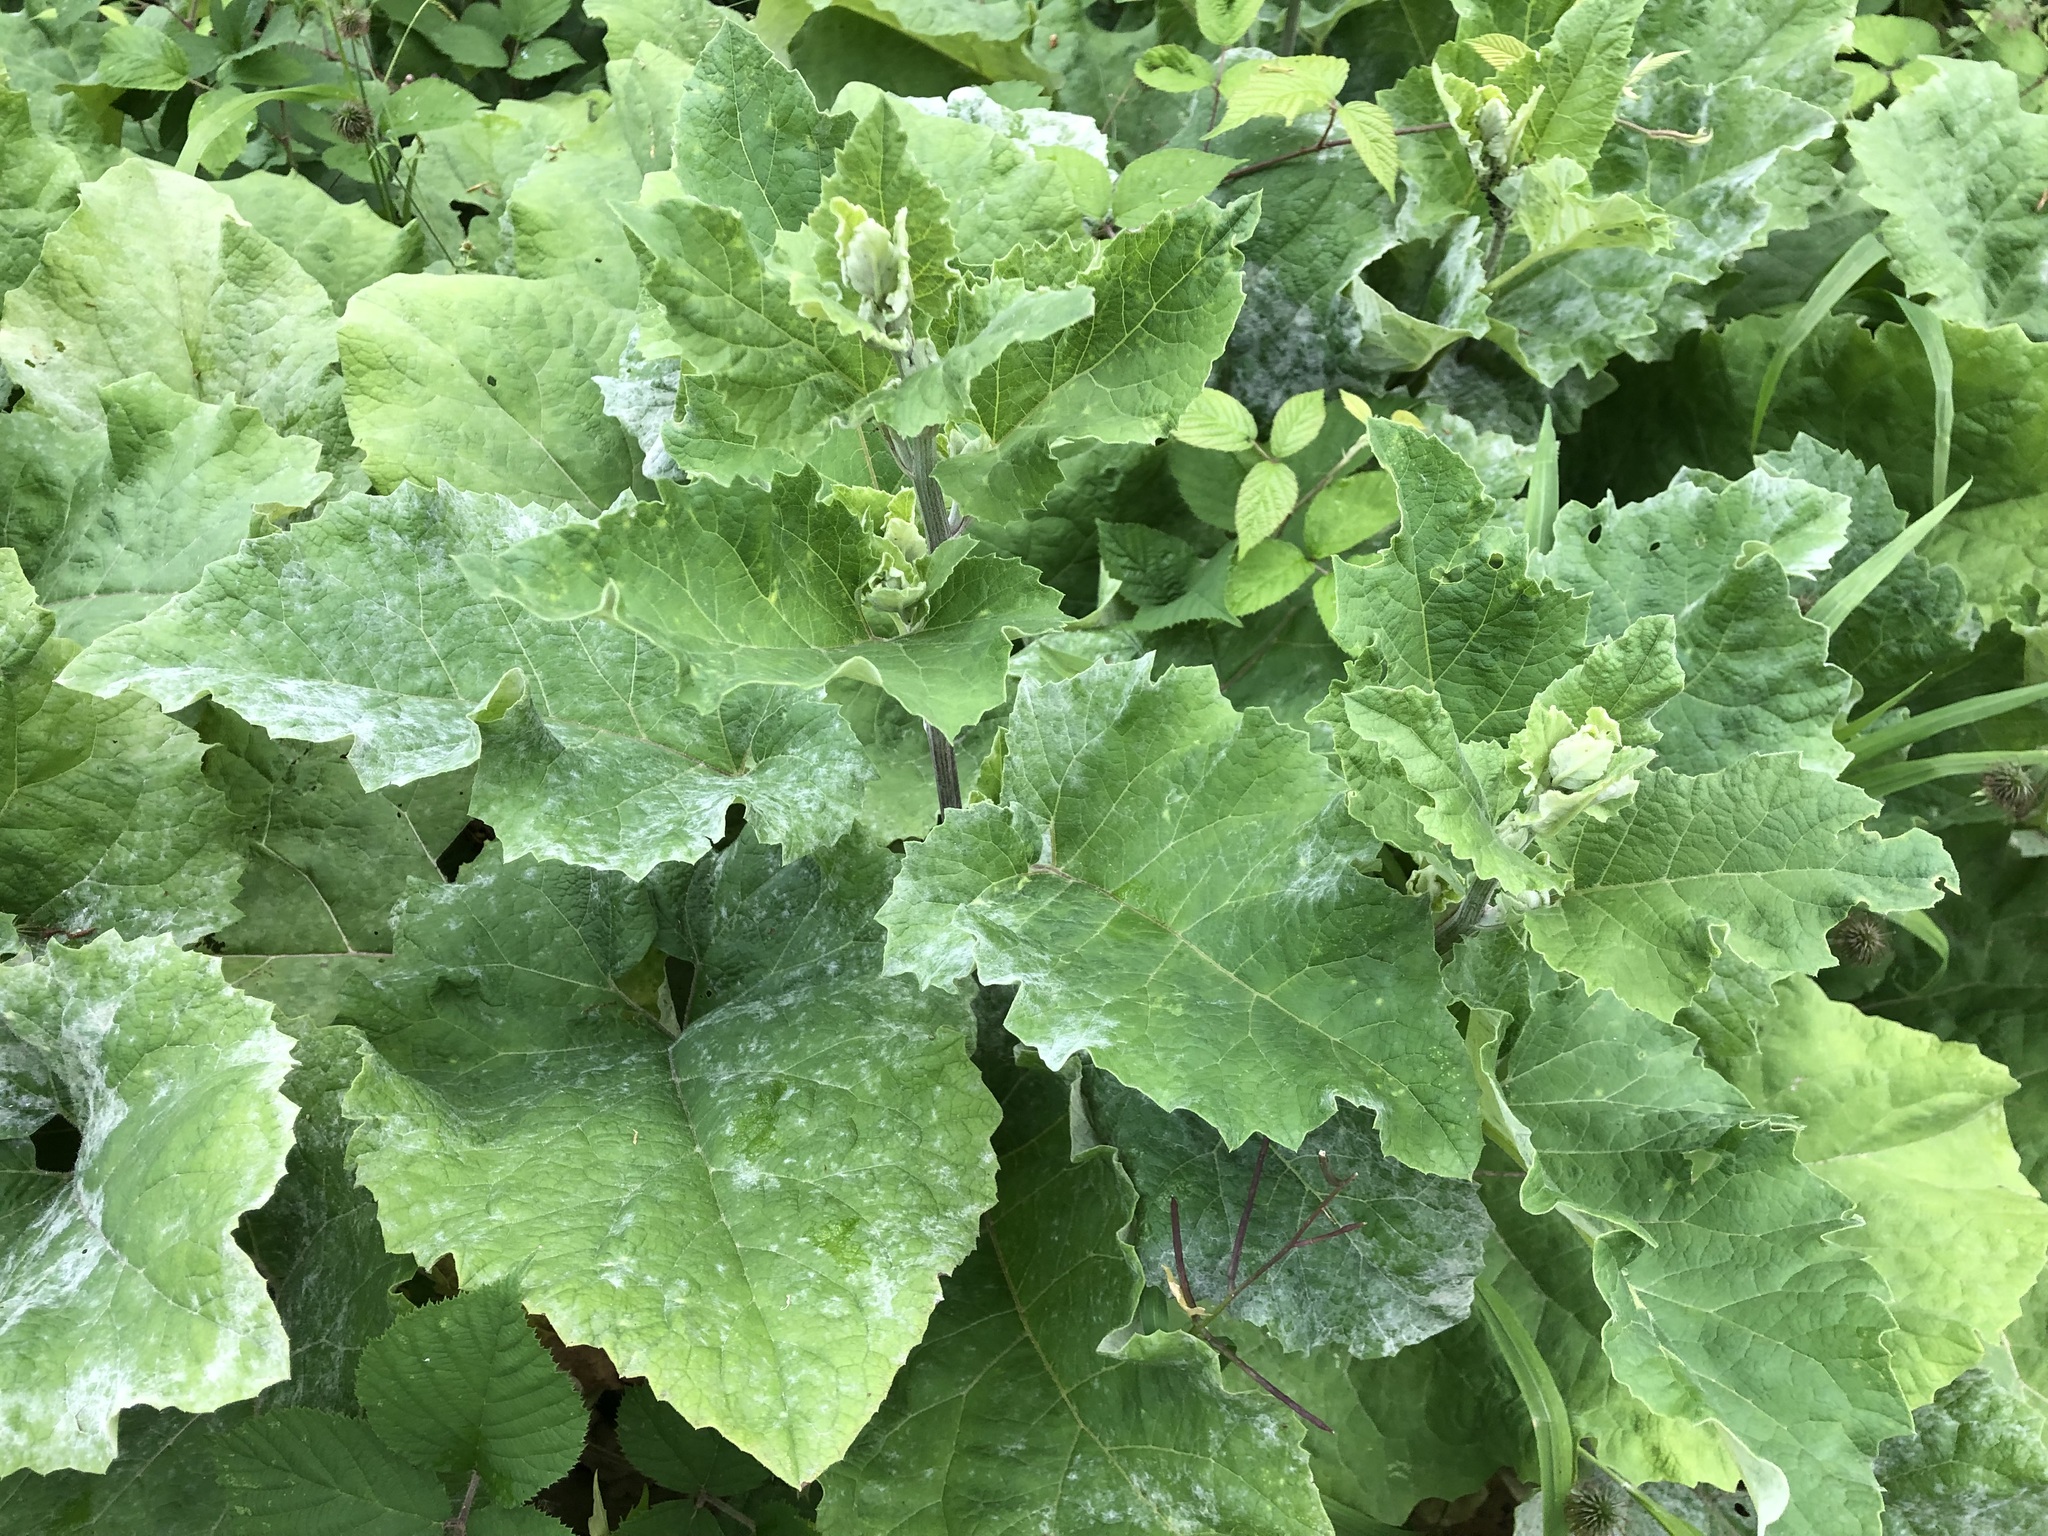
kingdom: Plantae
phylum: Tracheophyta
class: Magnoliopsida
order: Asterales
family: Asteraceae
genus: Arctium
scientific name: Arctium lappa
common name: Greater burdock
